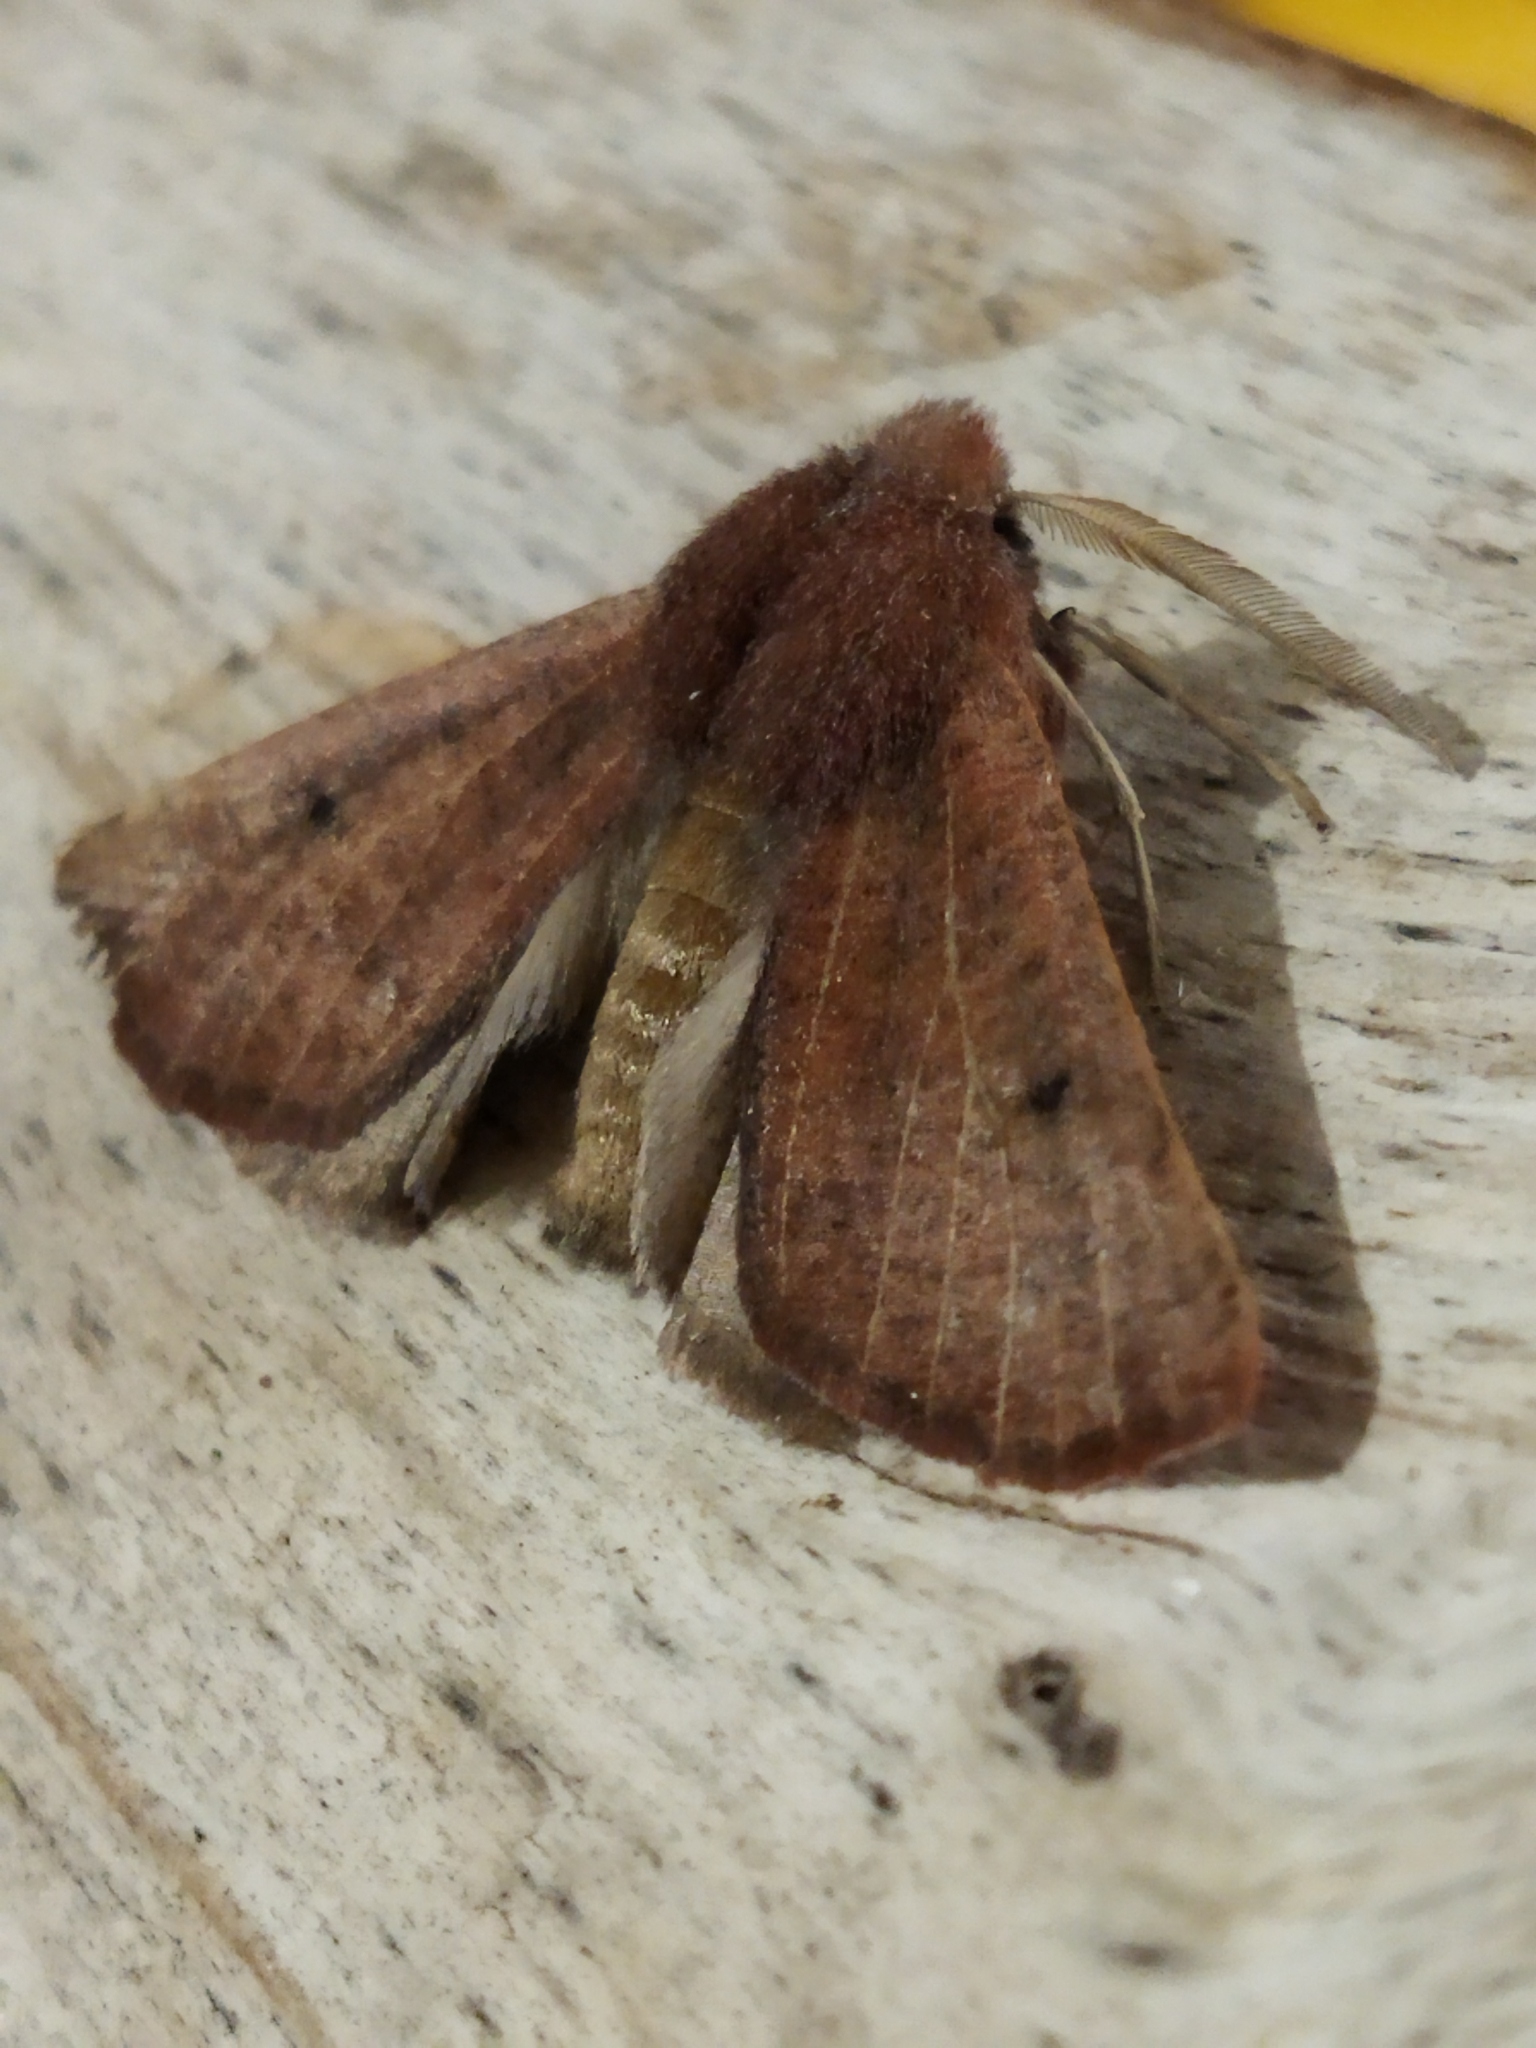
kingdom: Animalia
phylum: Arthropoda
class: Insecta
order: Lepidoptera
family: Geometridae
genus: Dasycorsa
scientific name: Dasycorsa modesta
